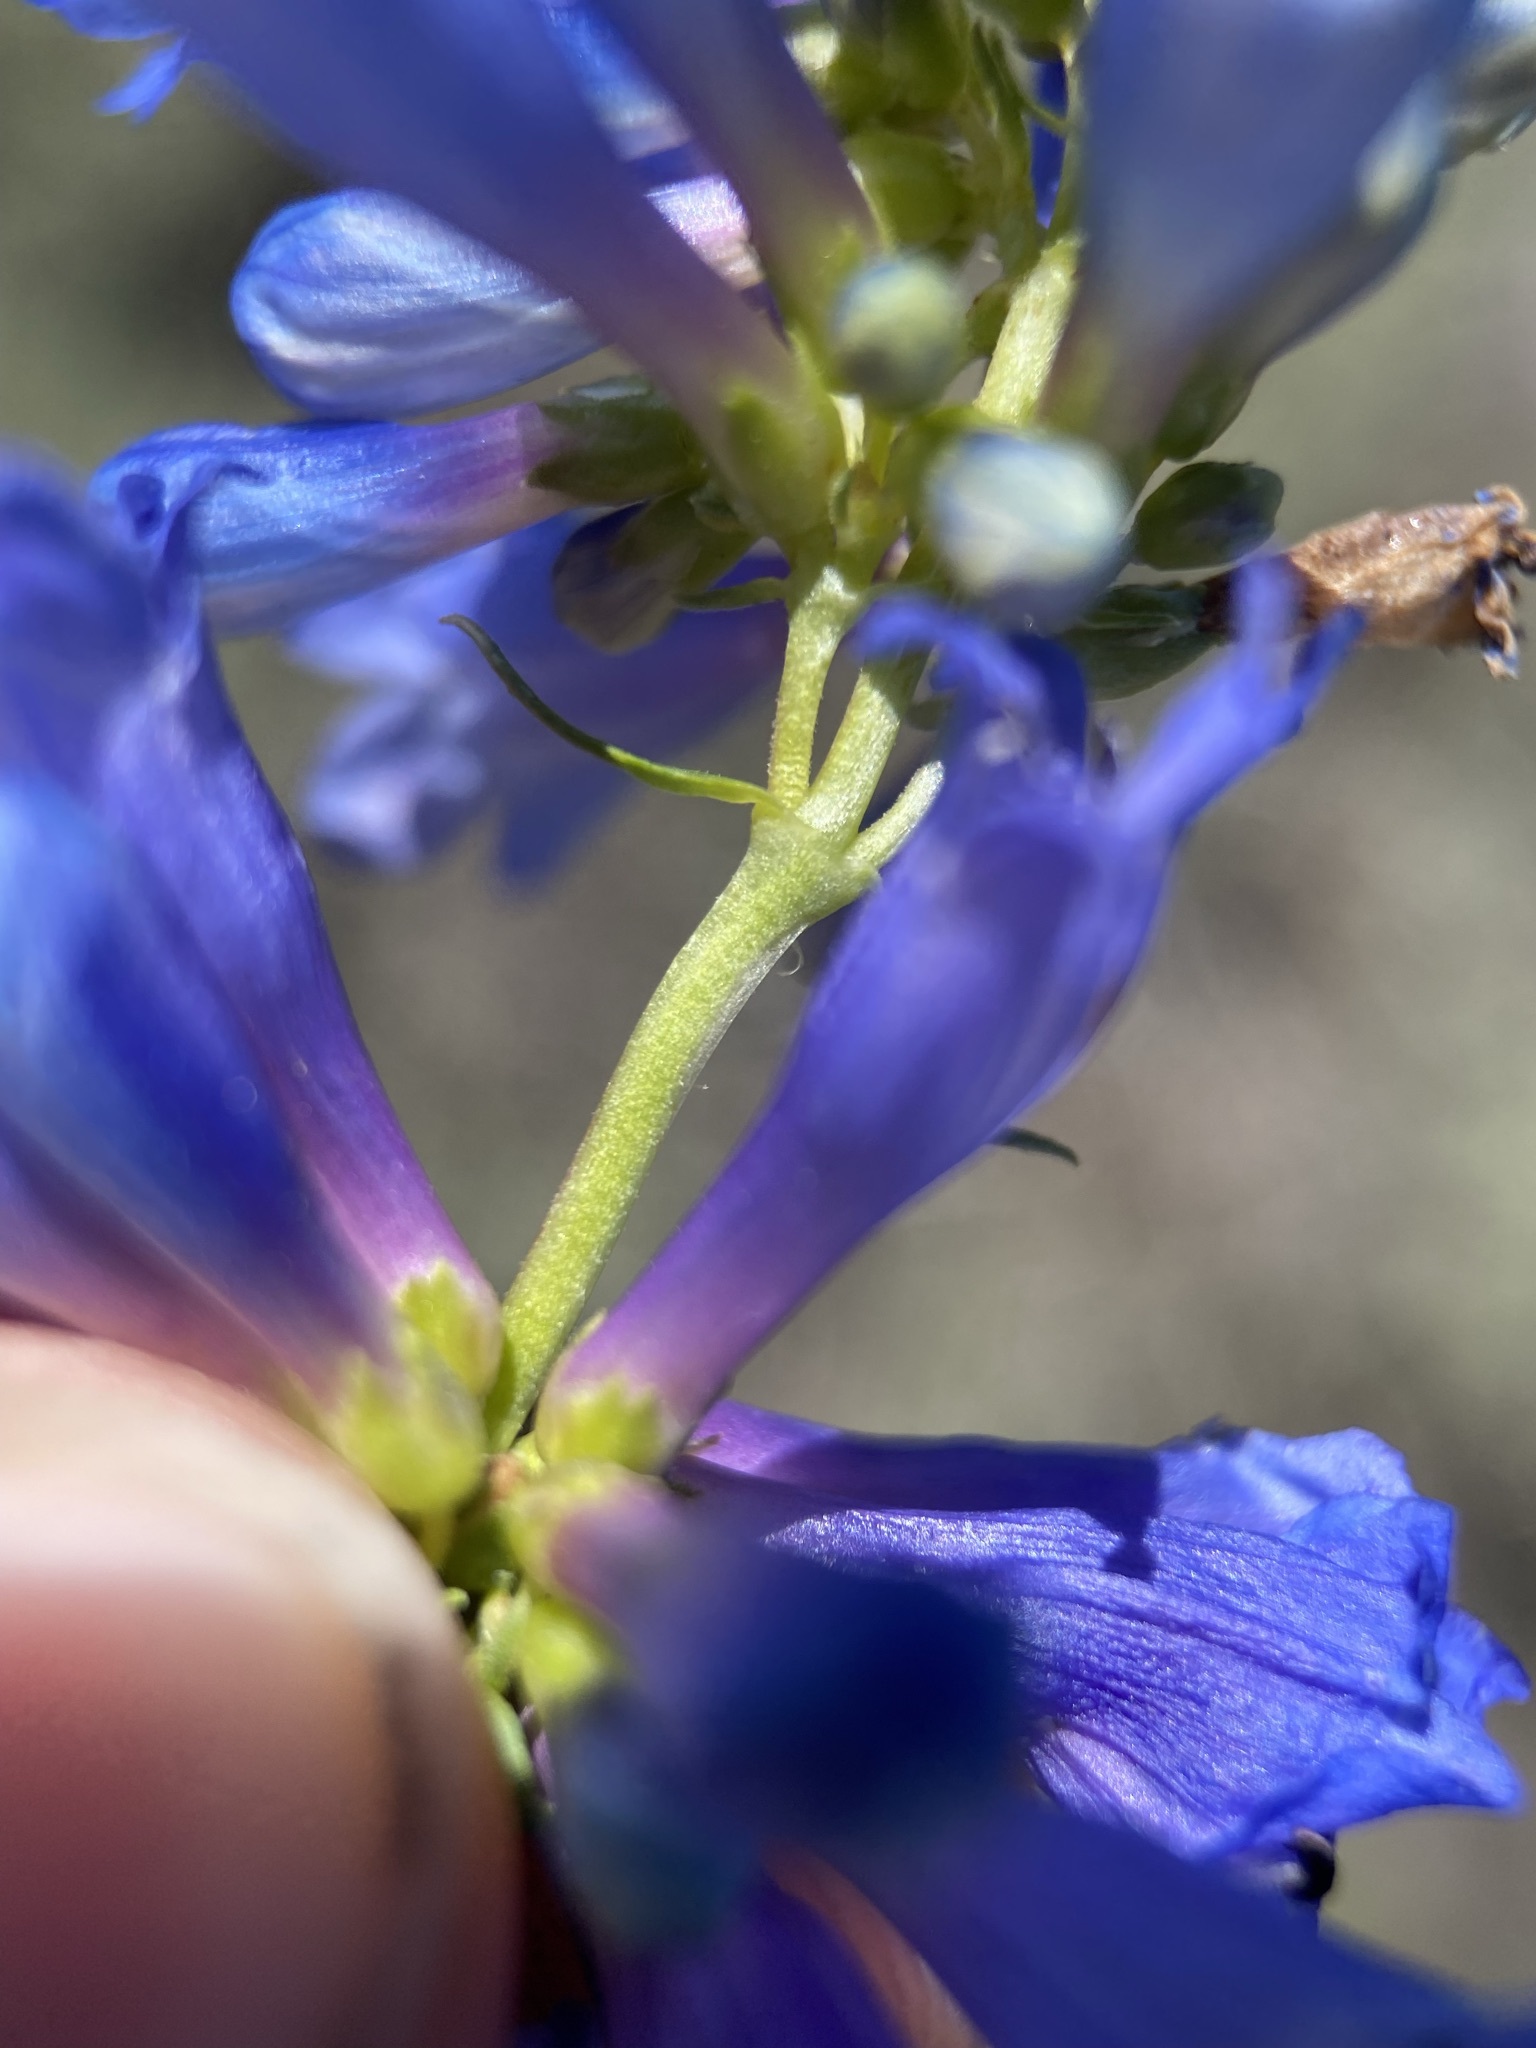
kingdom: Plantae
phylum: Tracheophyta
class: Magnoliopsida
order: Lamiales
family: Plantaginaceae
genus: Penstemon
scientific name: Penstemon watsonii
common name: Watson's penstemon
